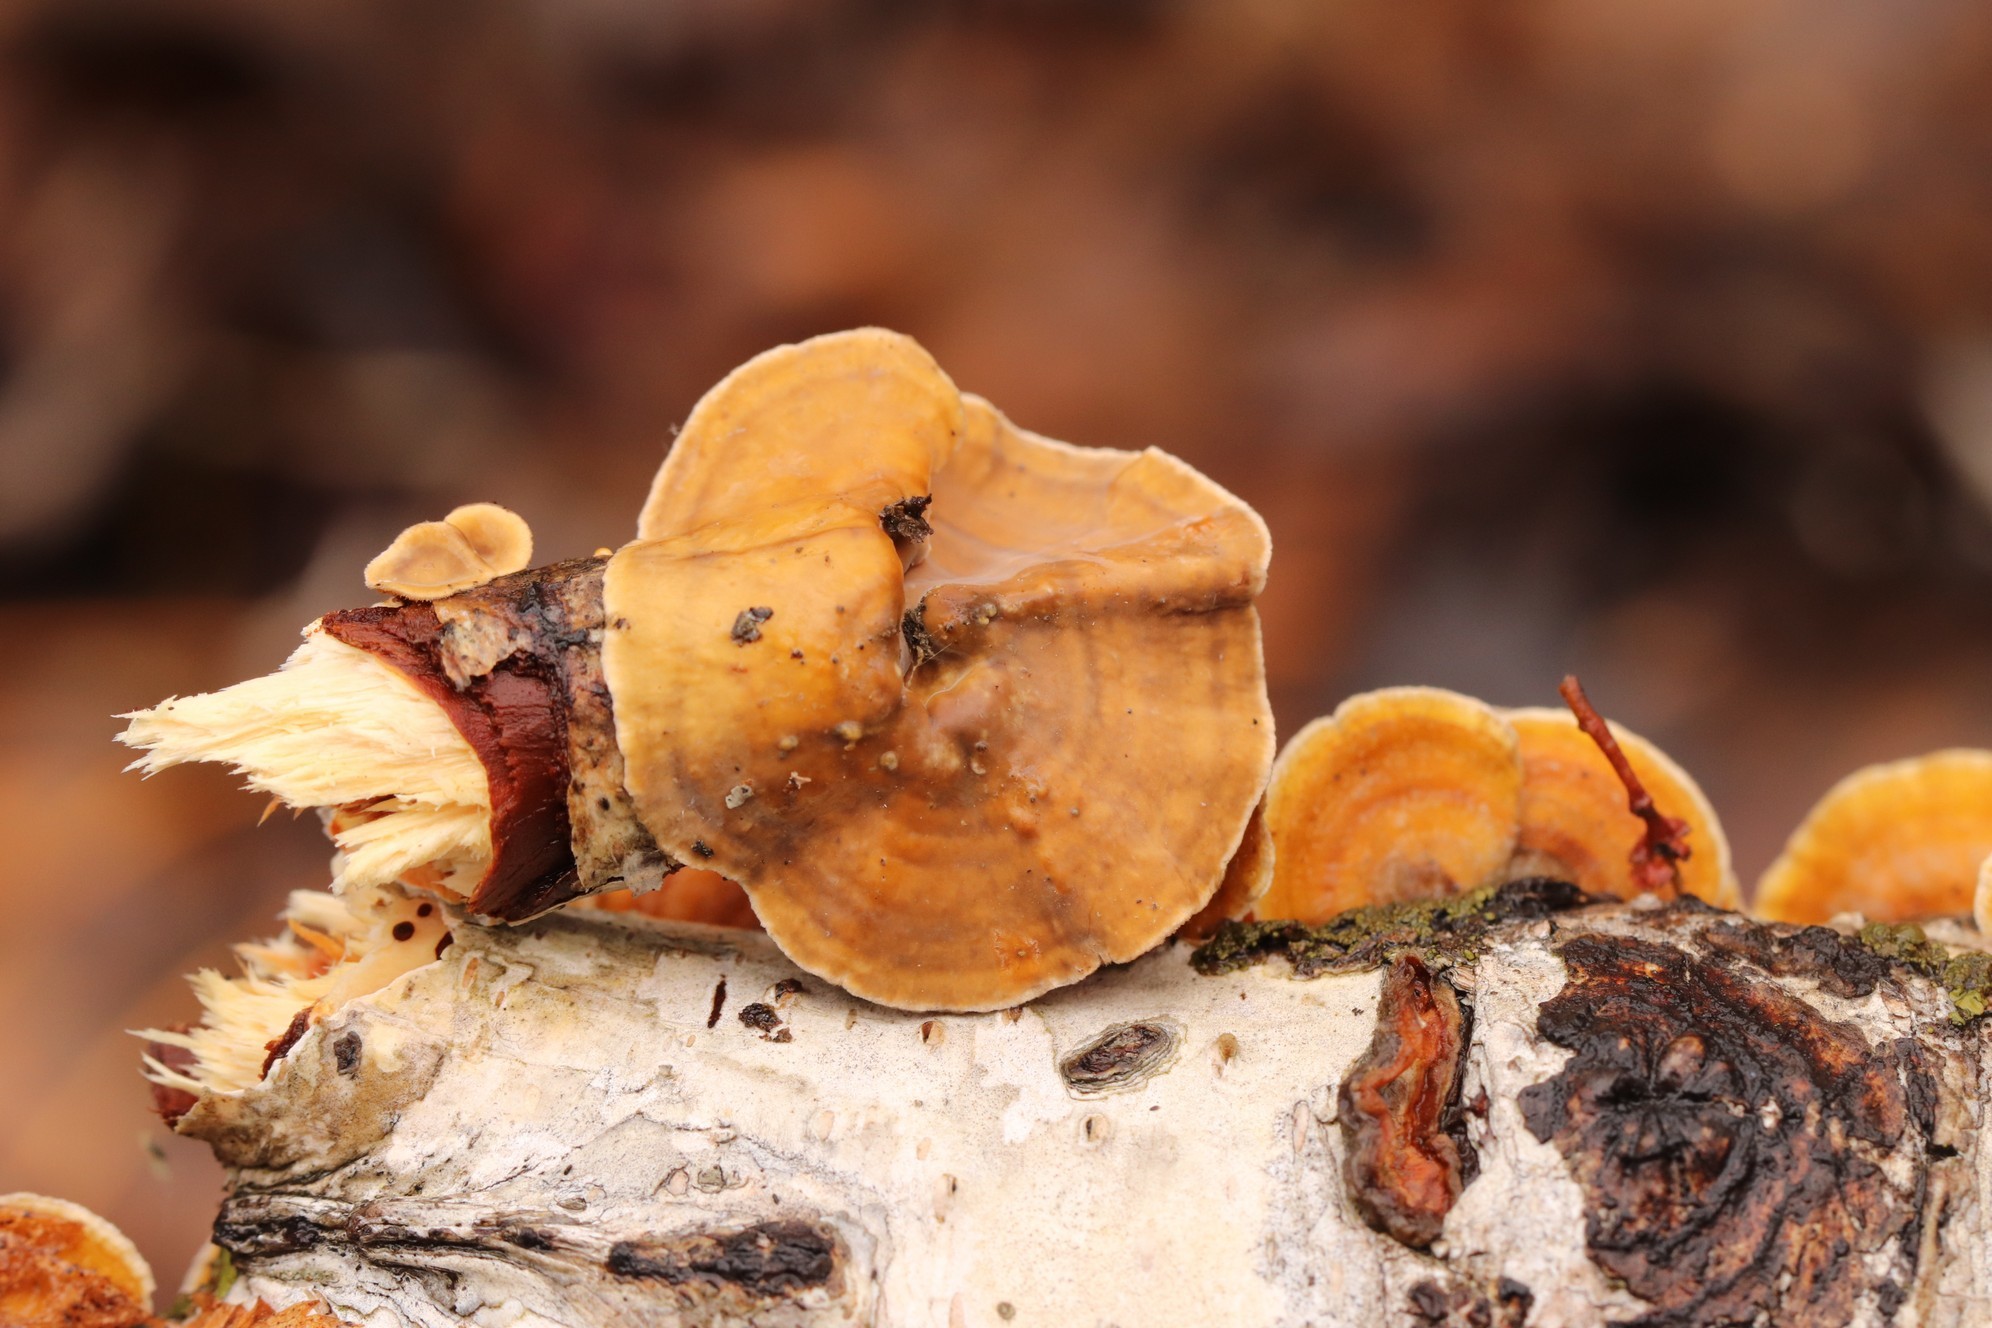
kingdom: Fungi
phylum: Basidiomycota
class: Agaricomycetes
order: Russulales
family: Stereaceae
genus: Stereum
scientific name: Stereum hirsutum
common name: Hairy curtain crust
